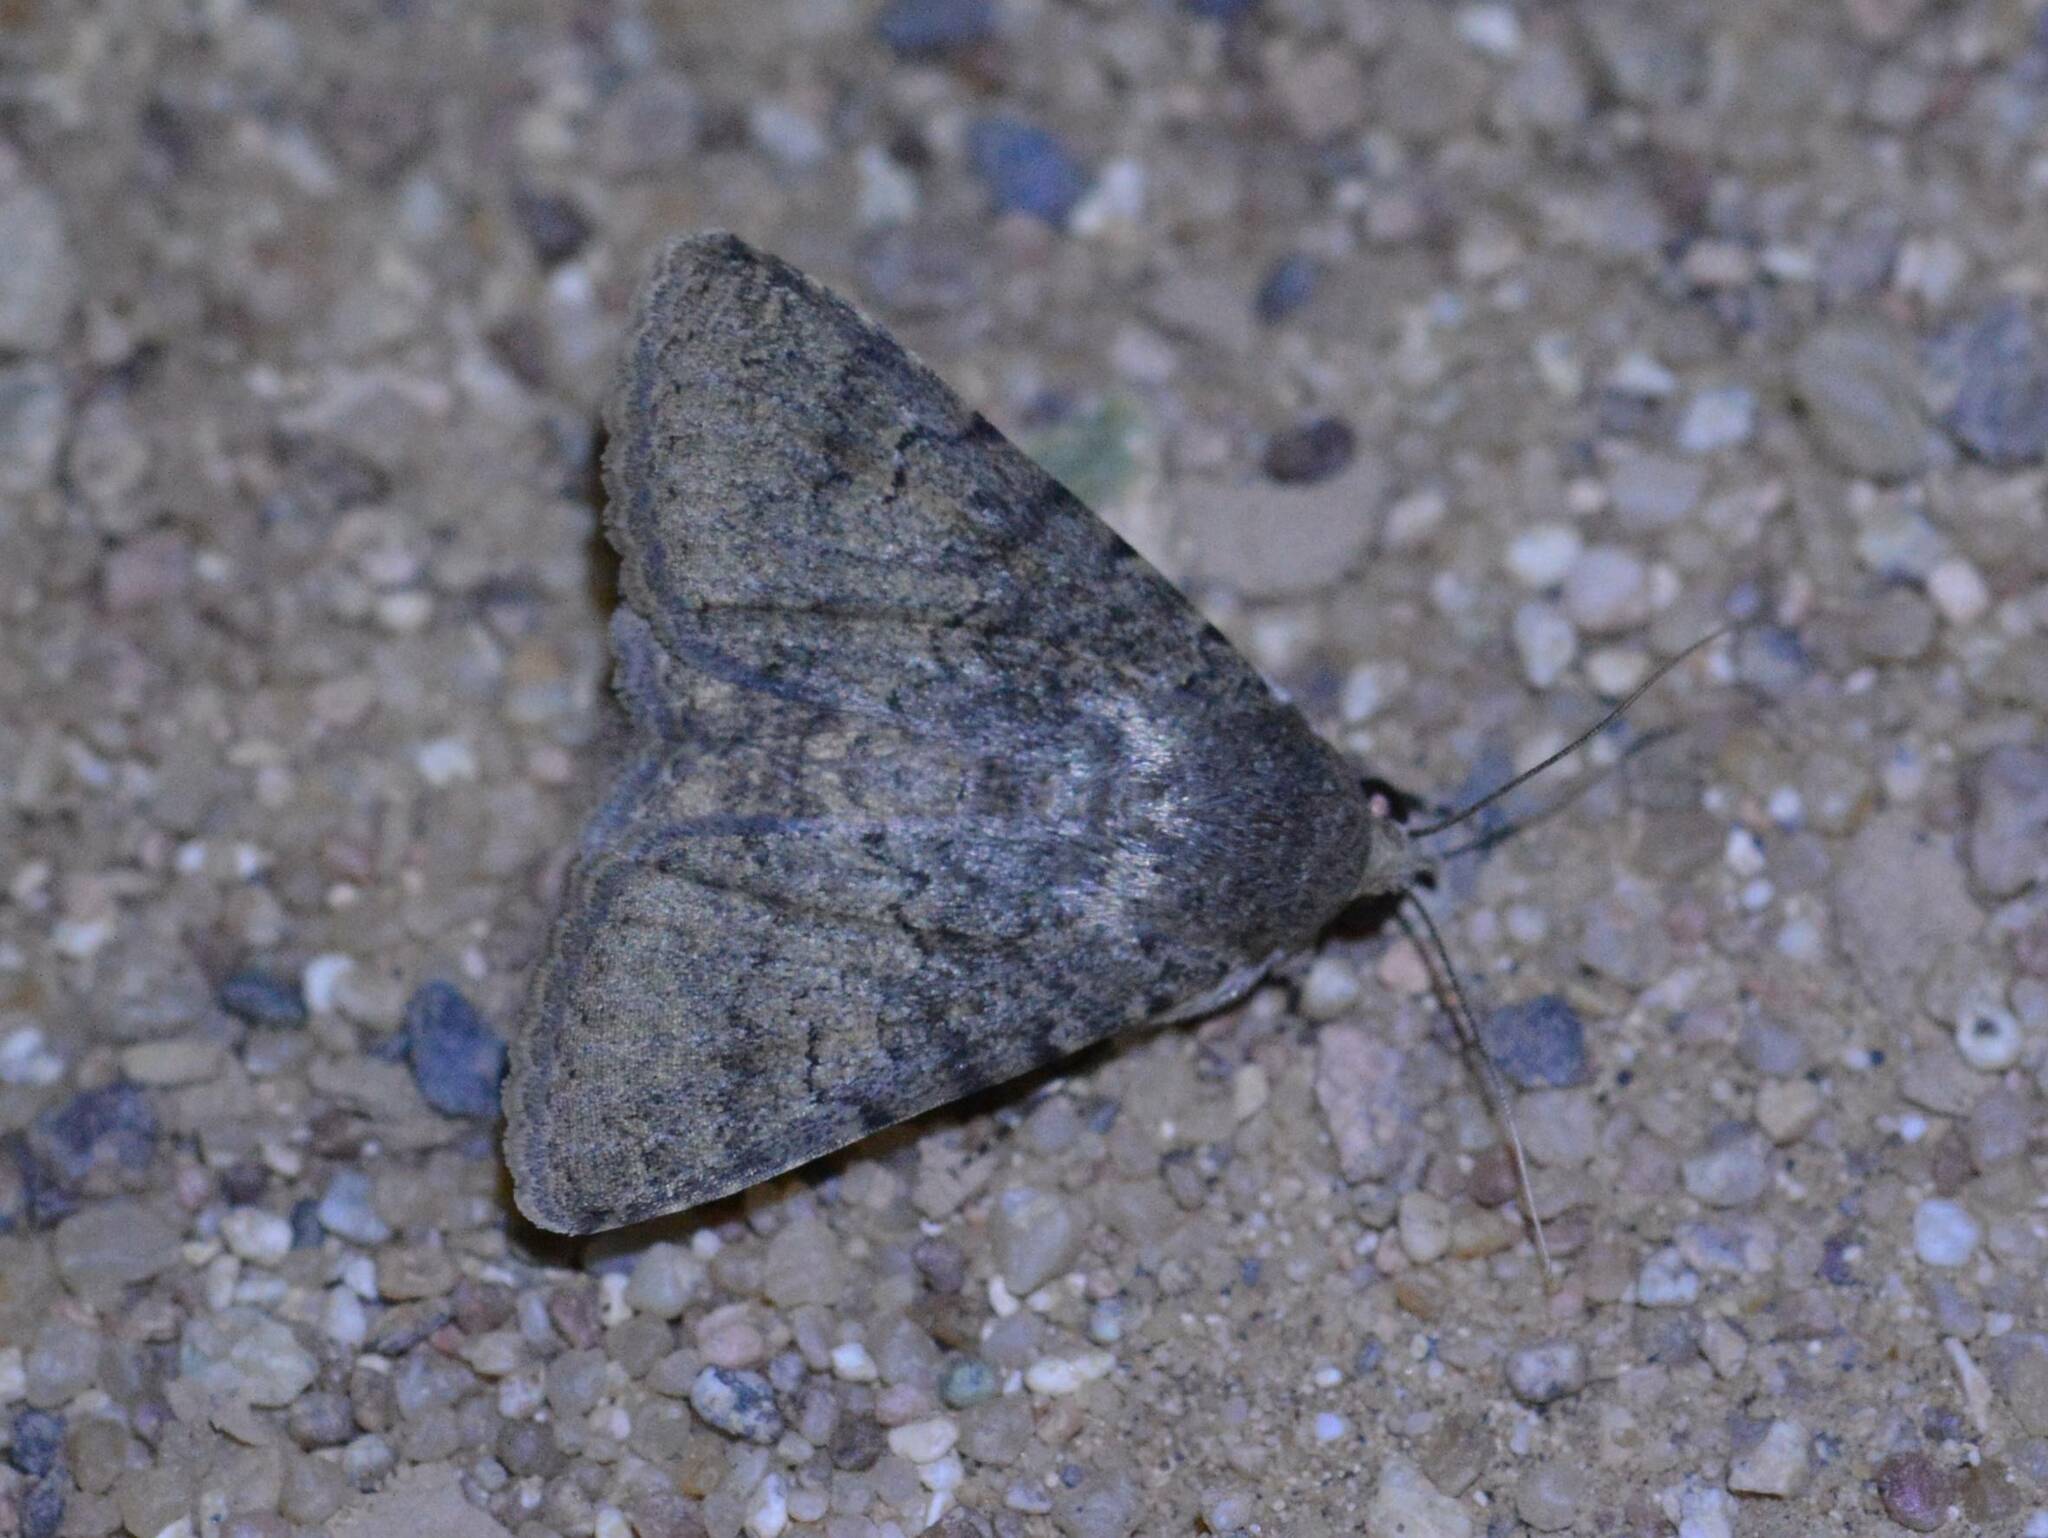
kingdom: Animalia
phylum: Arthropoda
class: Insecta
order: Lepidoptera
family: Erebidae
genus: Pandesma
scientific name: Pandesma robusta
